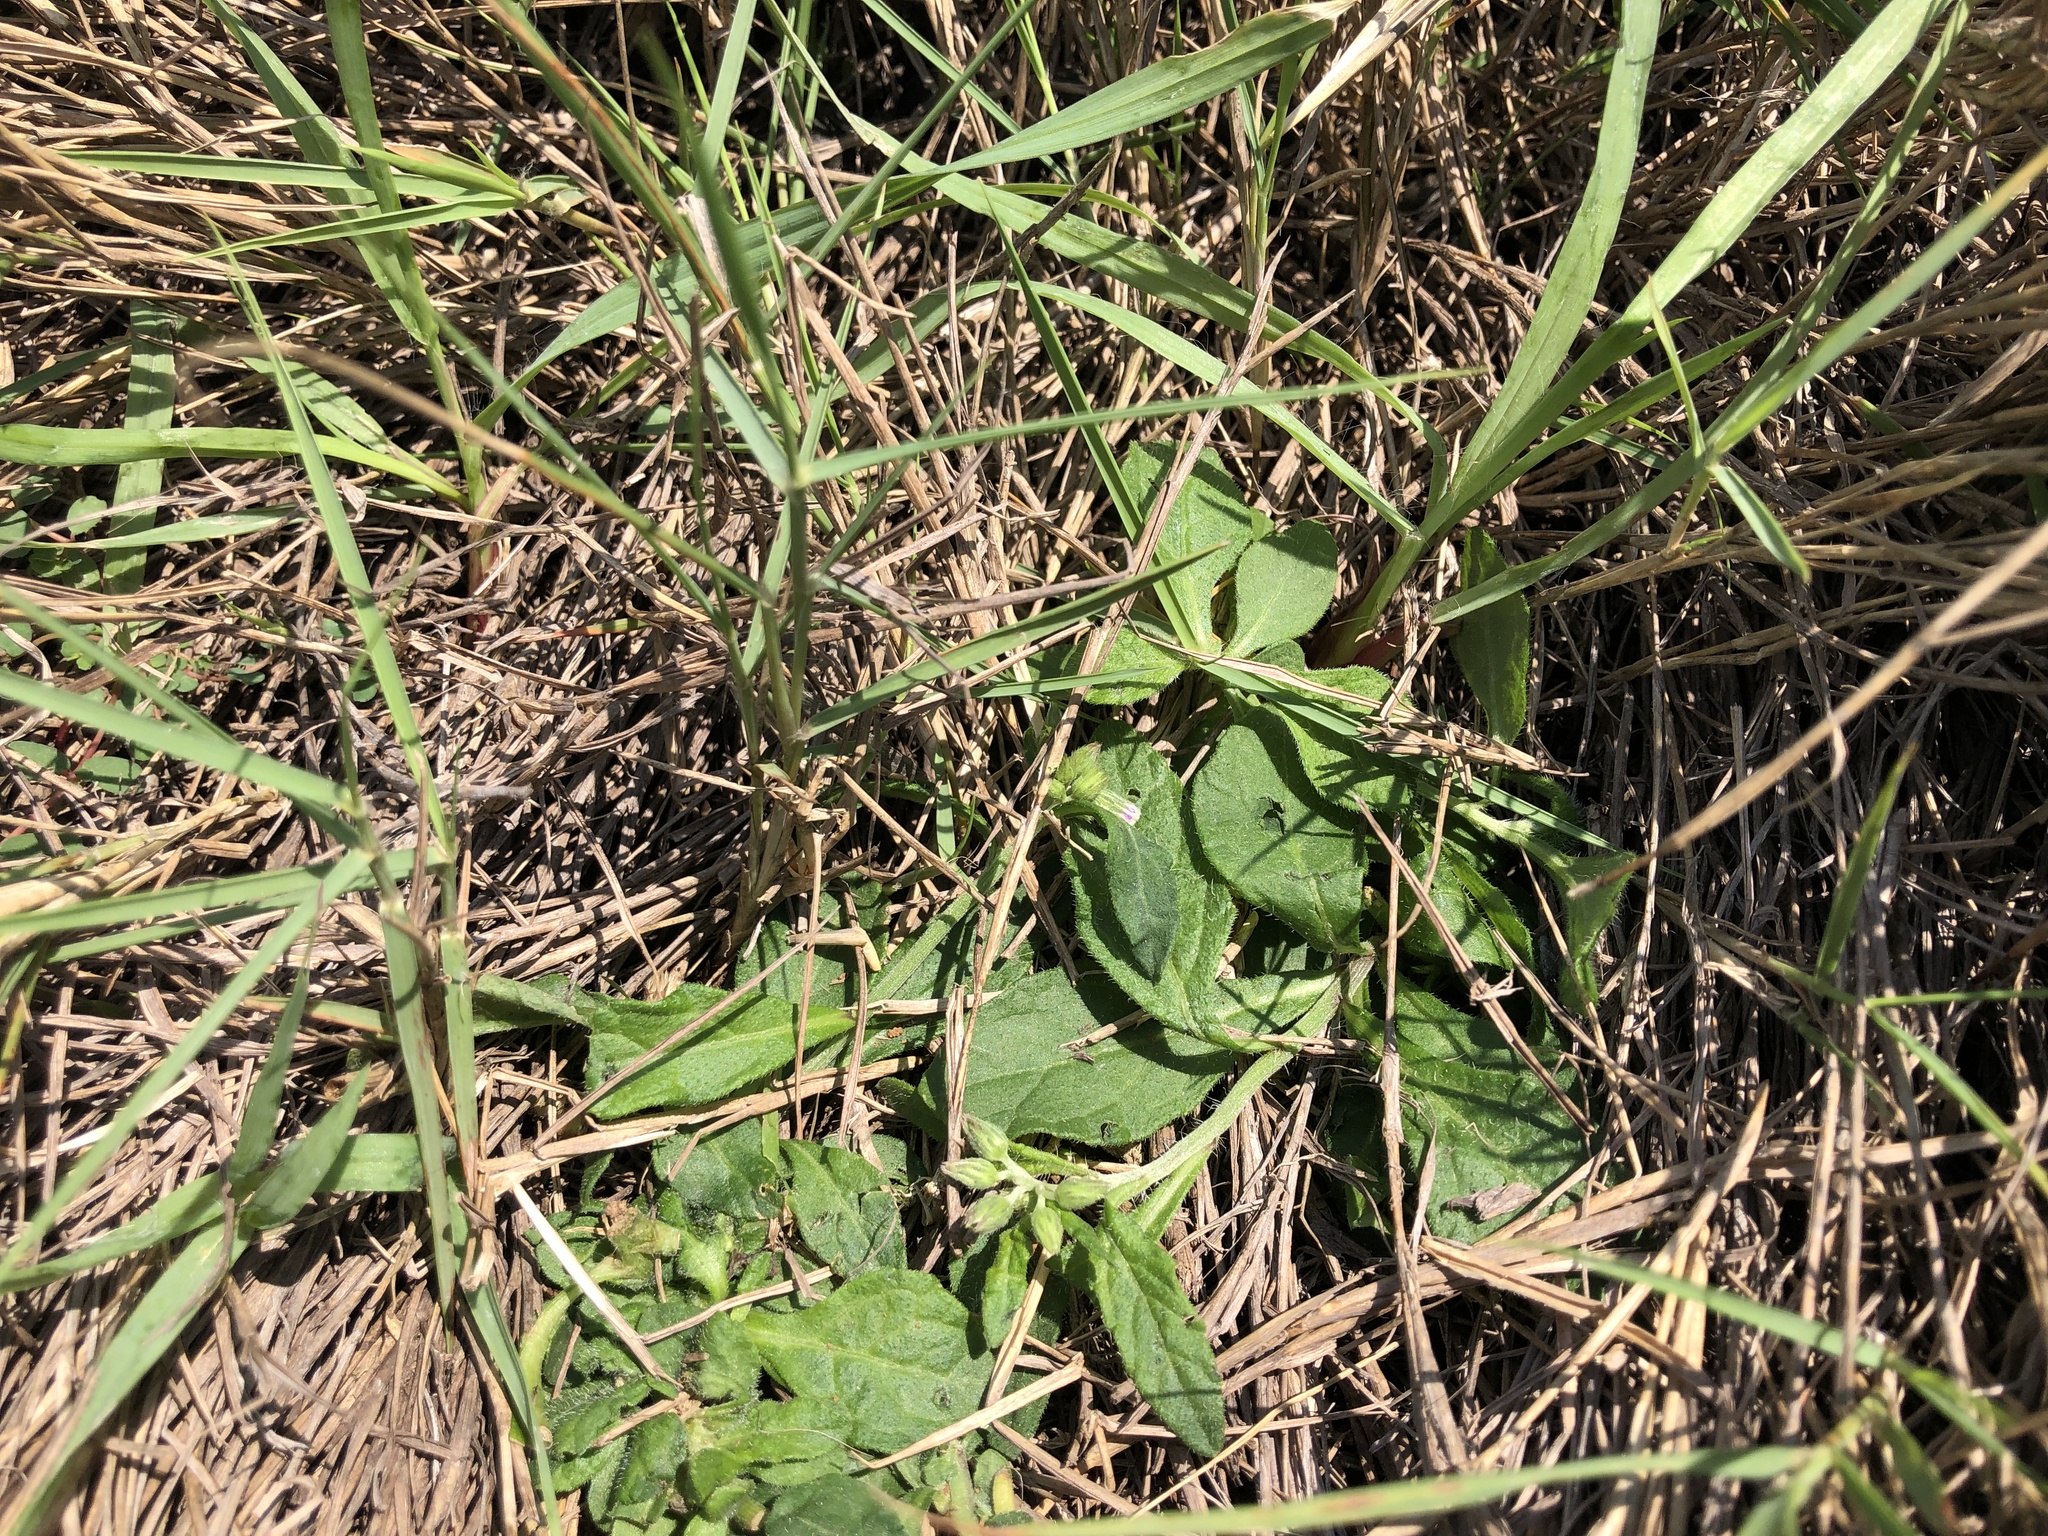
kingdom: Plantae
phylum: Tracheophyta
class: Magnoliopsida
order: Asterales
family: Asteraceae
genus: Cyanthillium
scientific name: Cyanthillium cinereum
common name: Little ironweed
